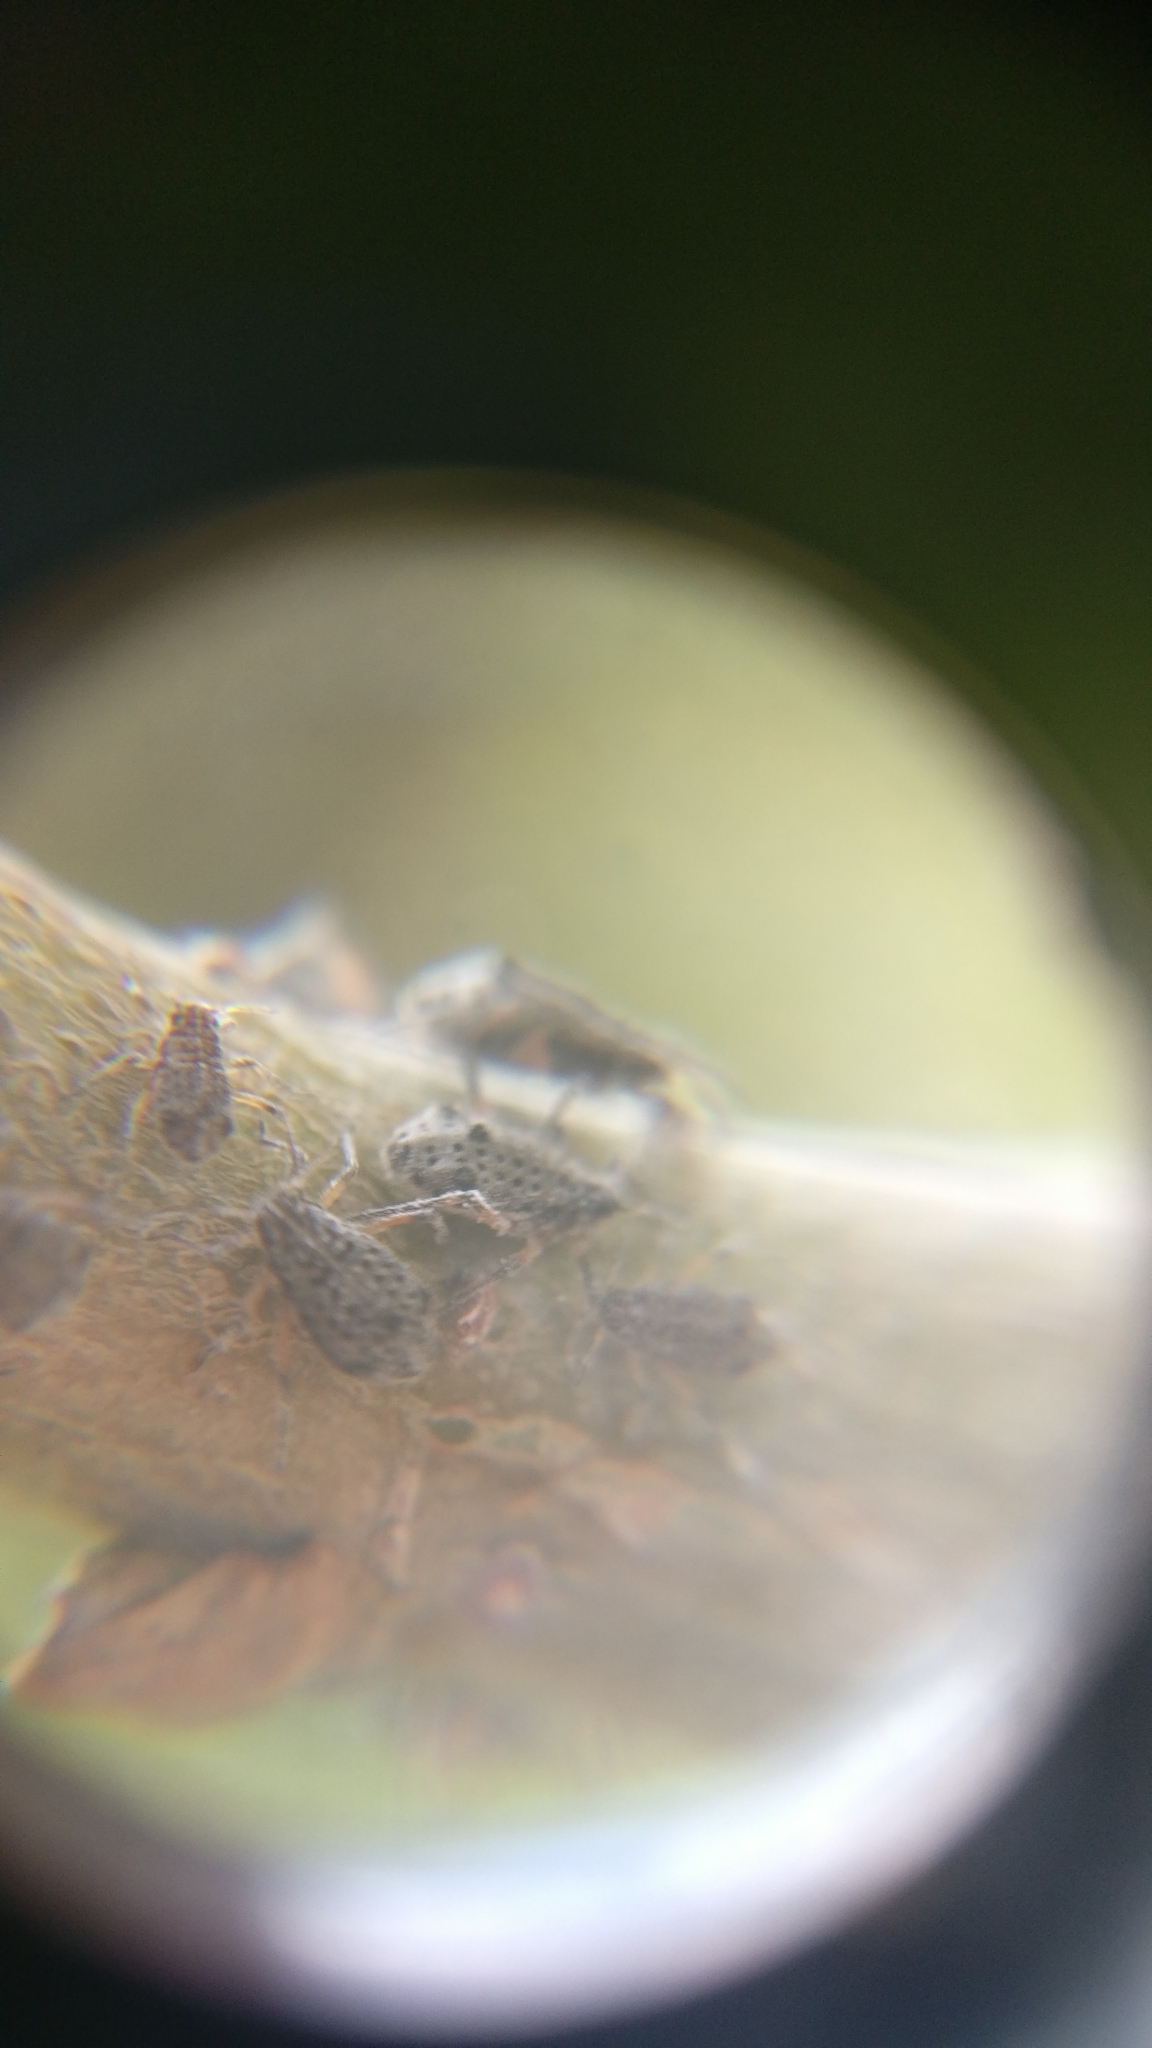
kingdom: Animalia
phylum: Arthropoda
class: Insecta
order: Hemiptera
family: Aphididae
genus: Tuberolachnus
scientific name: Tuberolachnus salignus
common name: Giant willow aphid
